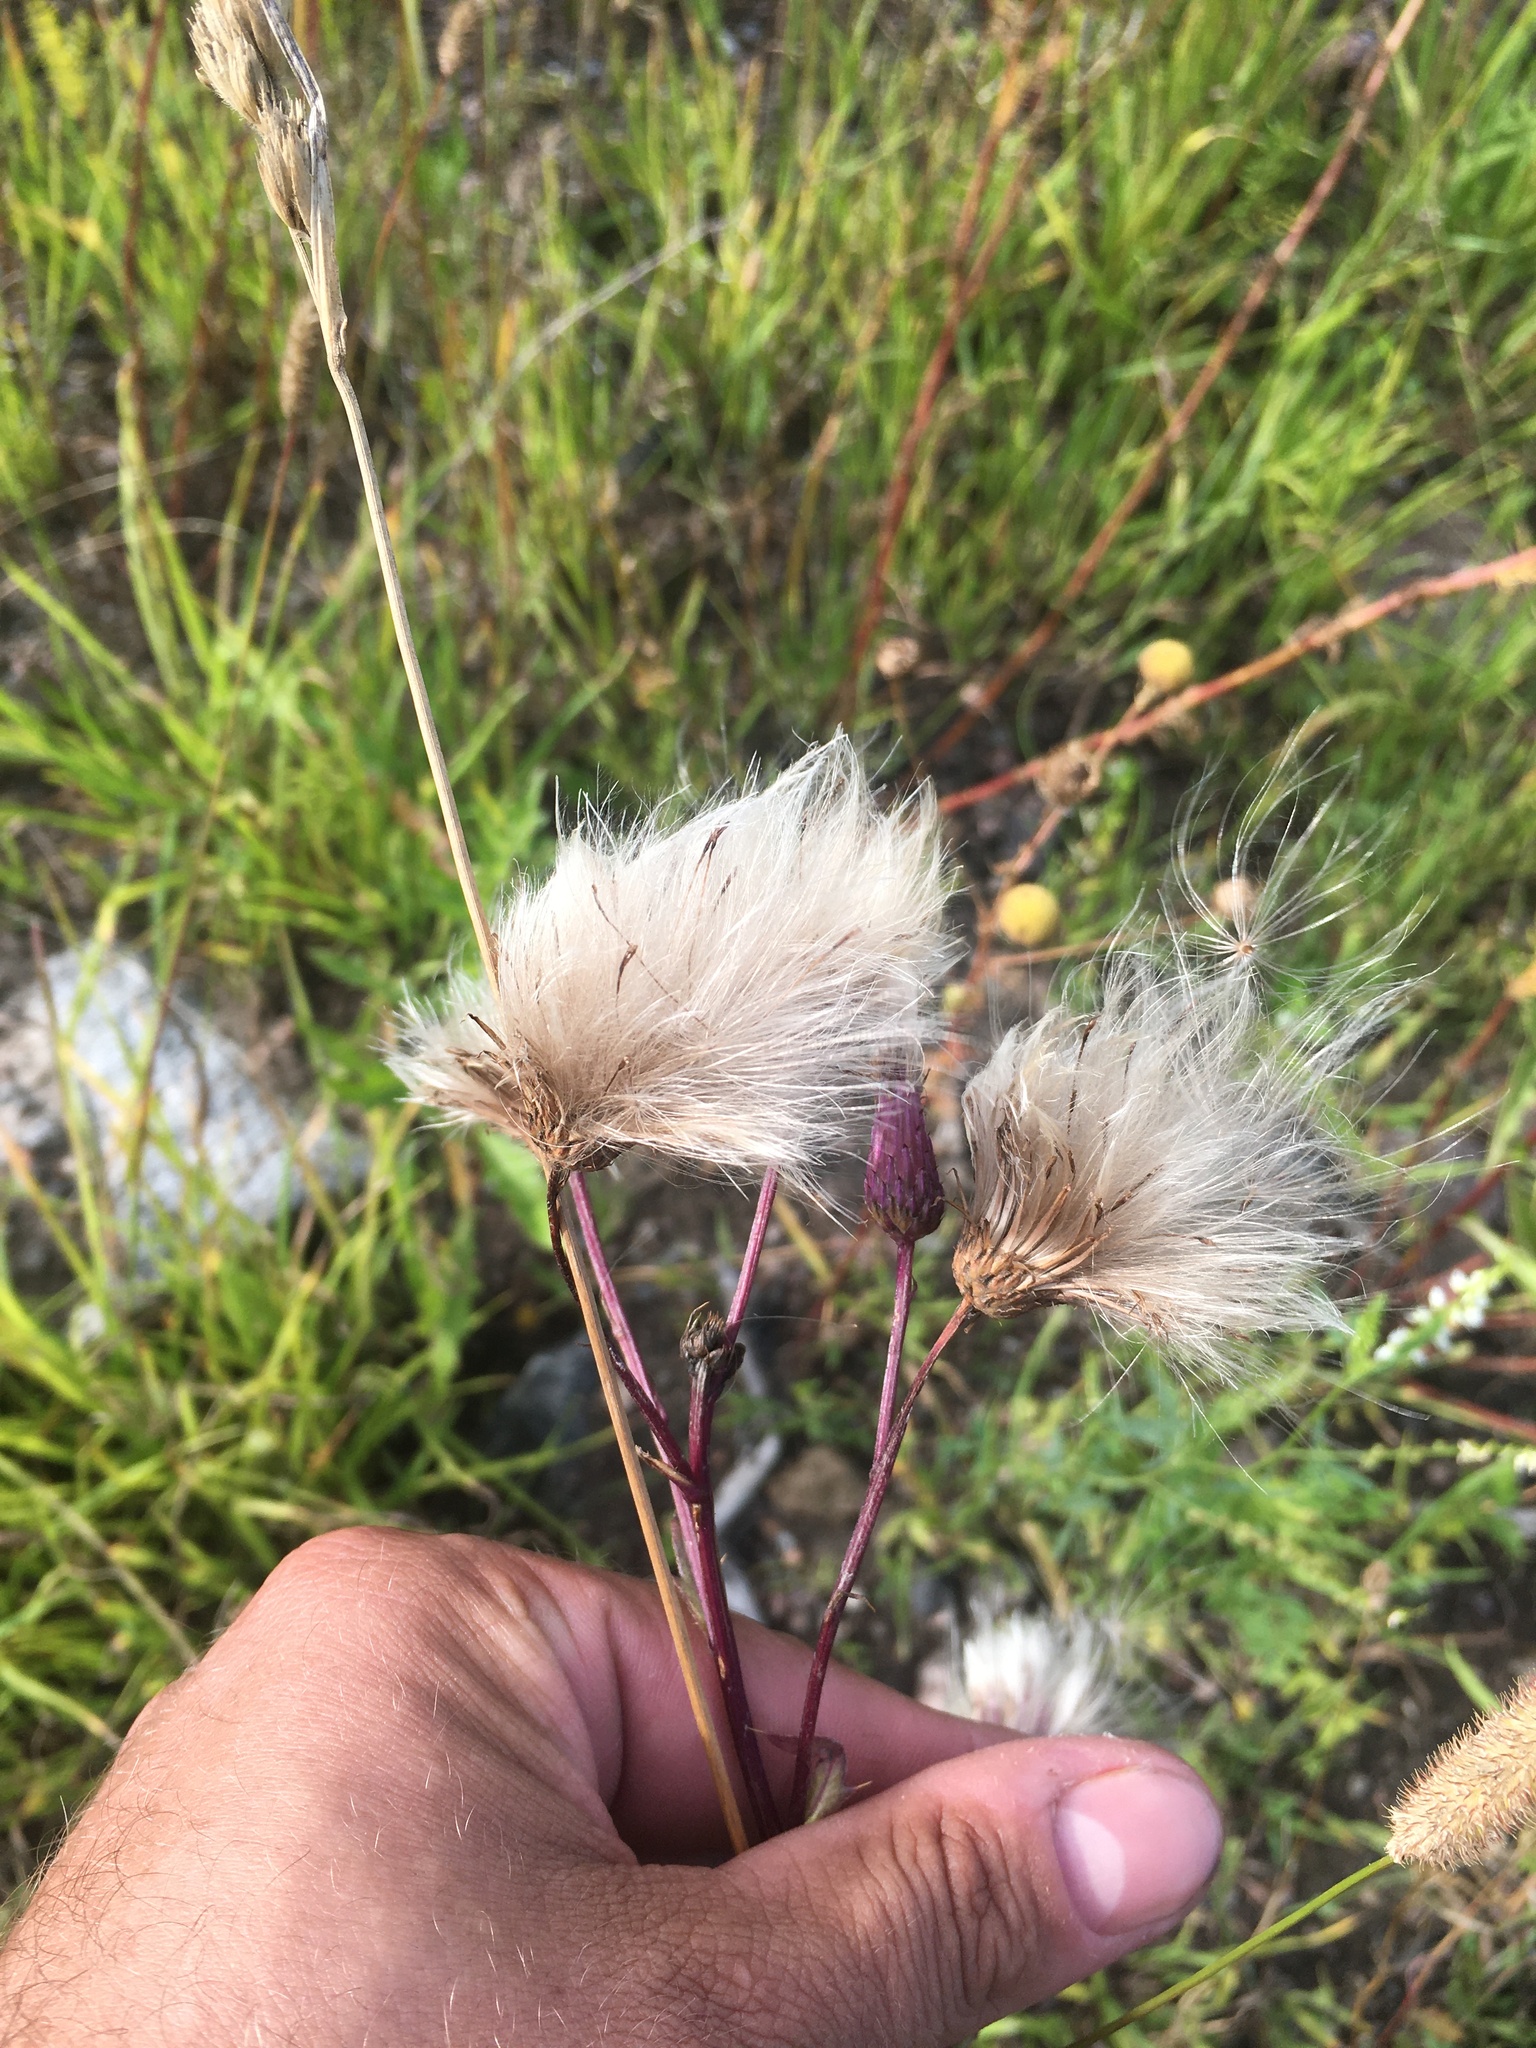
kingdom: Plantae
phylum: Tracheophyta
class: Magnoliopsida
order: Asterales
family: Asteraceae
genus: Cirsium
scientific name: Cirsium arvense
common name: Creeping thistle
